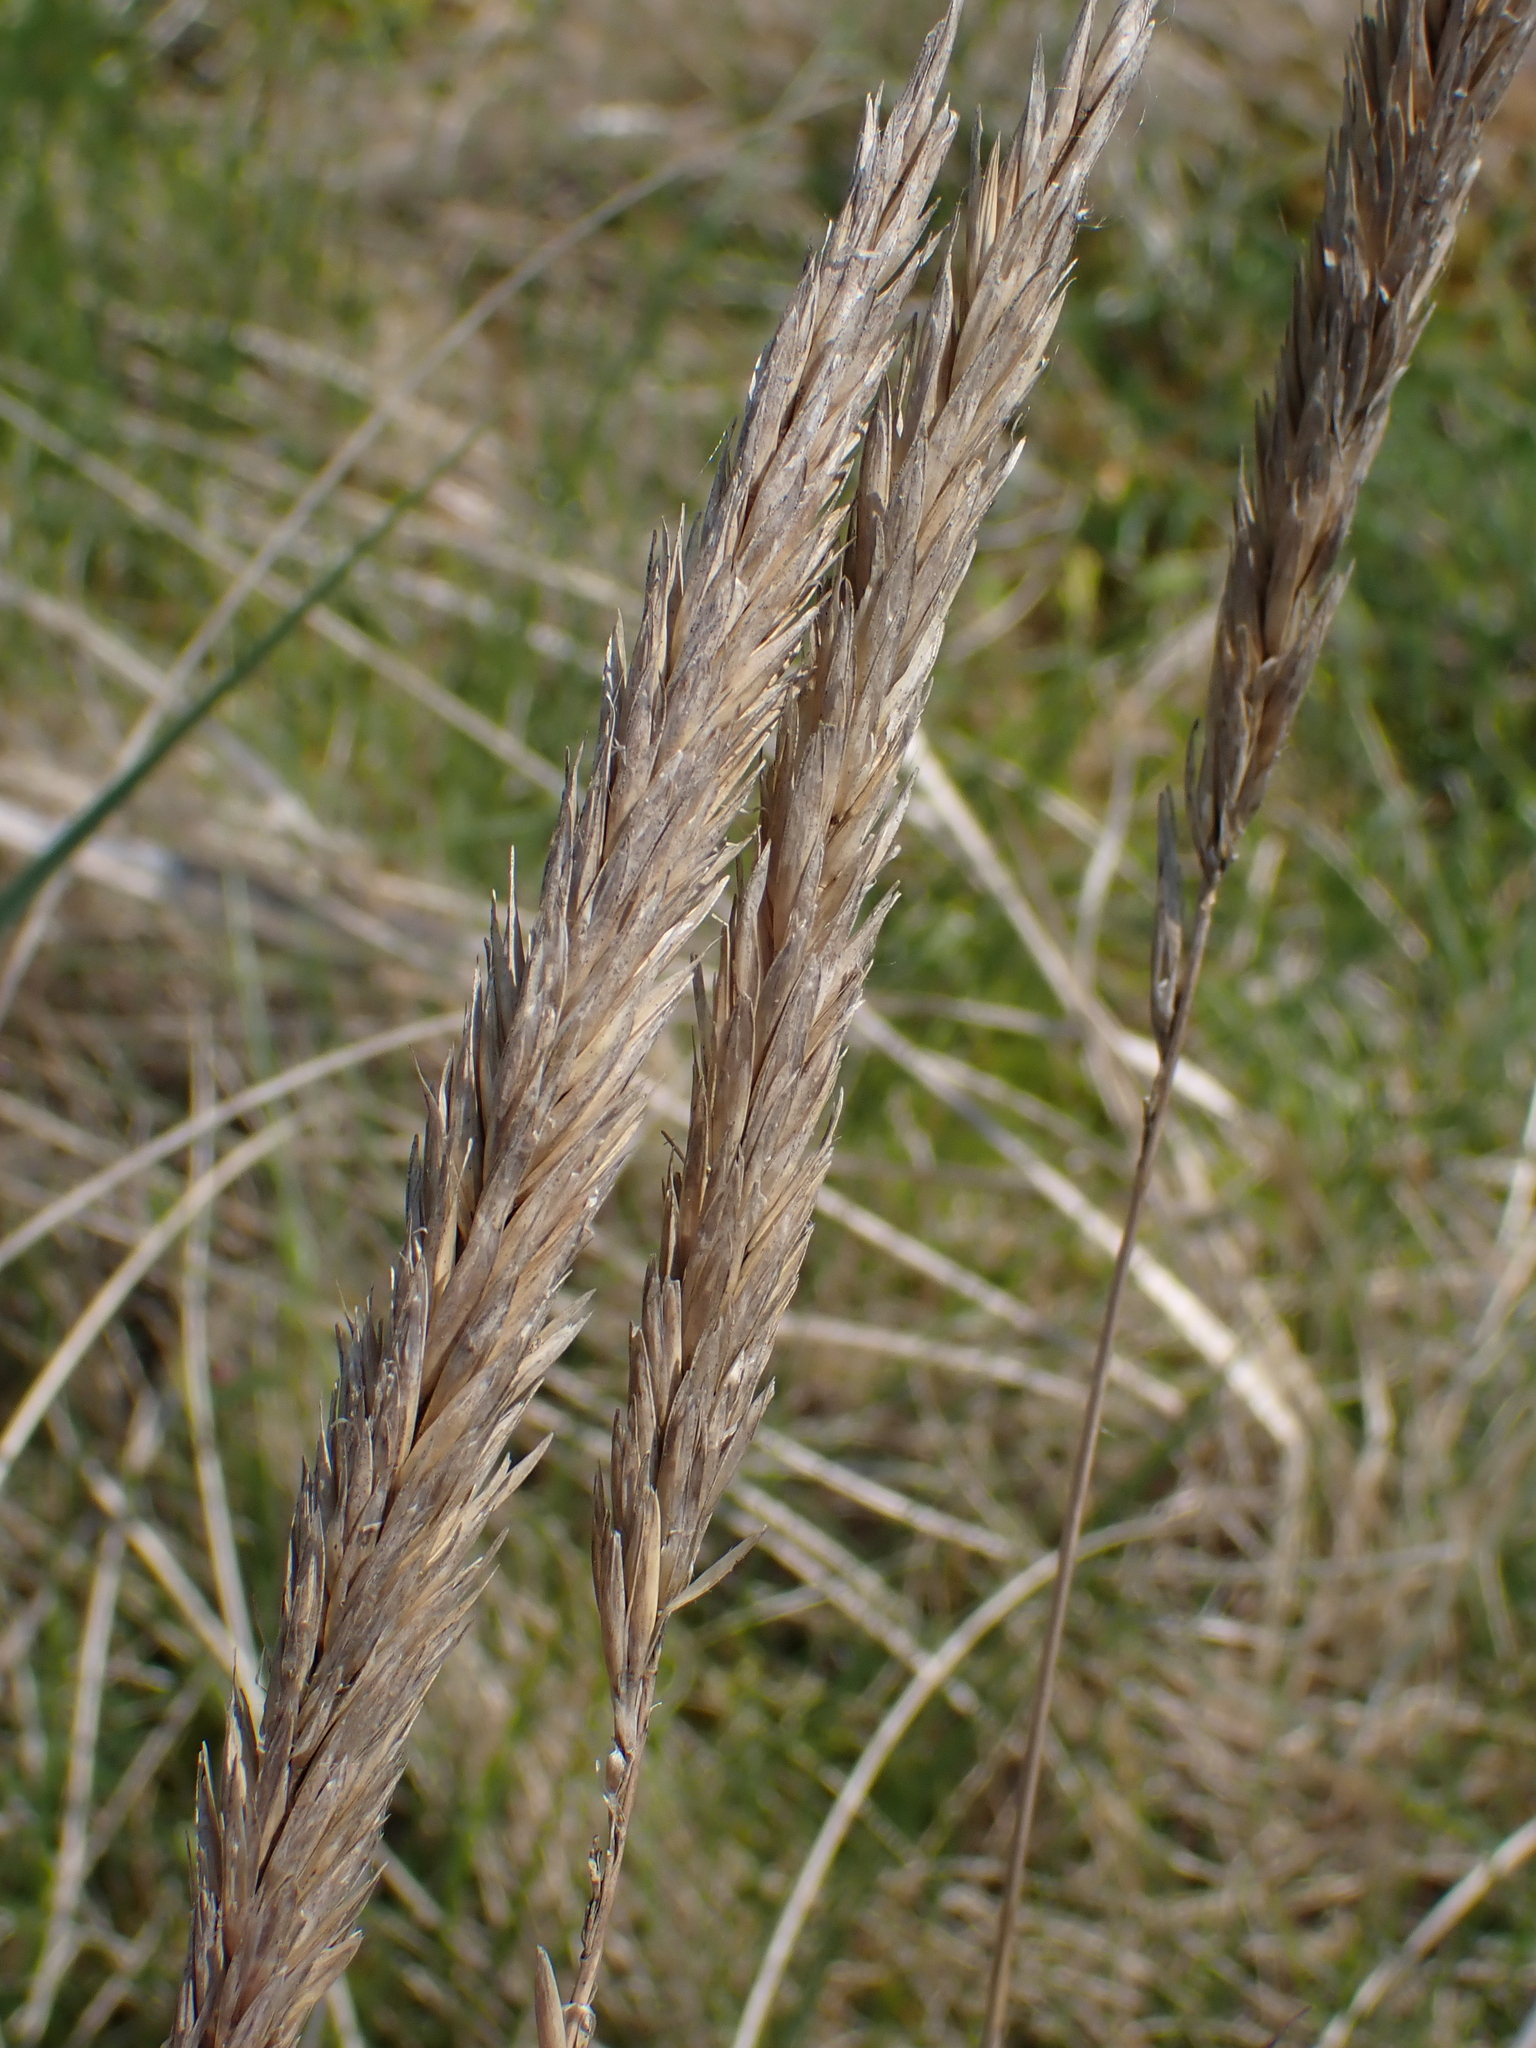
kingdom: Plantae
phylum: Tracheophyta
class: Liliopsida
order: Poales
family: Poaceae
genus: Calamagrostis
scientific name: Calamagrostis arenaria
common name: European beachgrass
